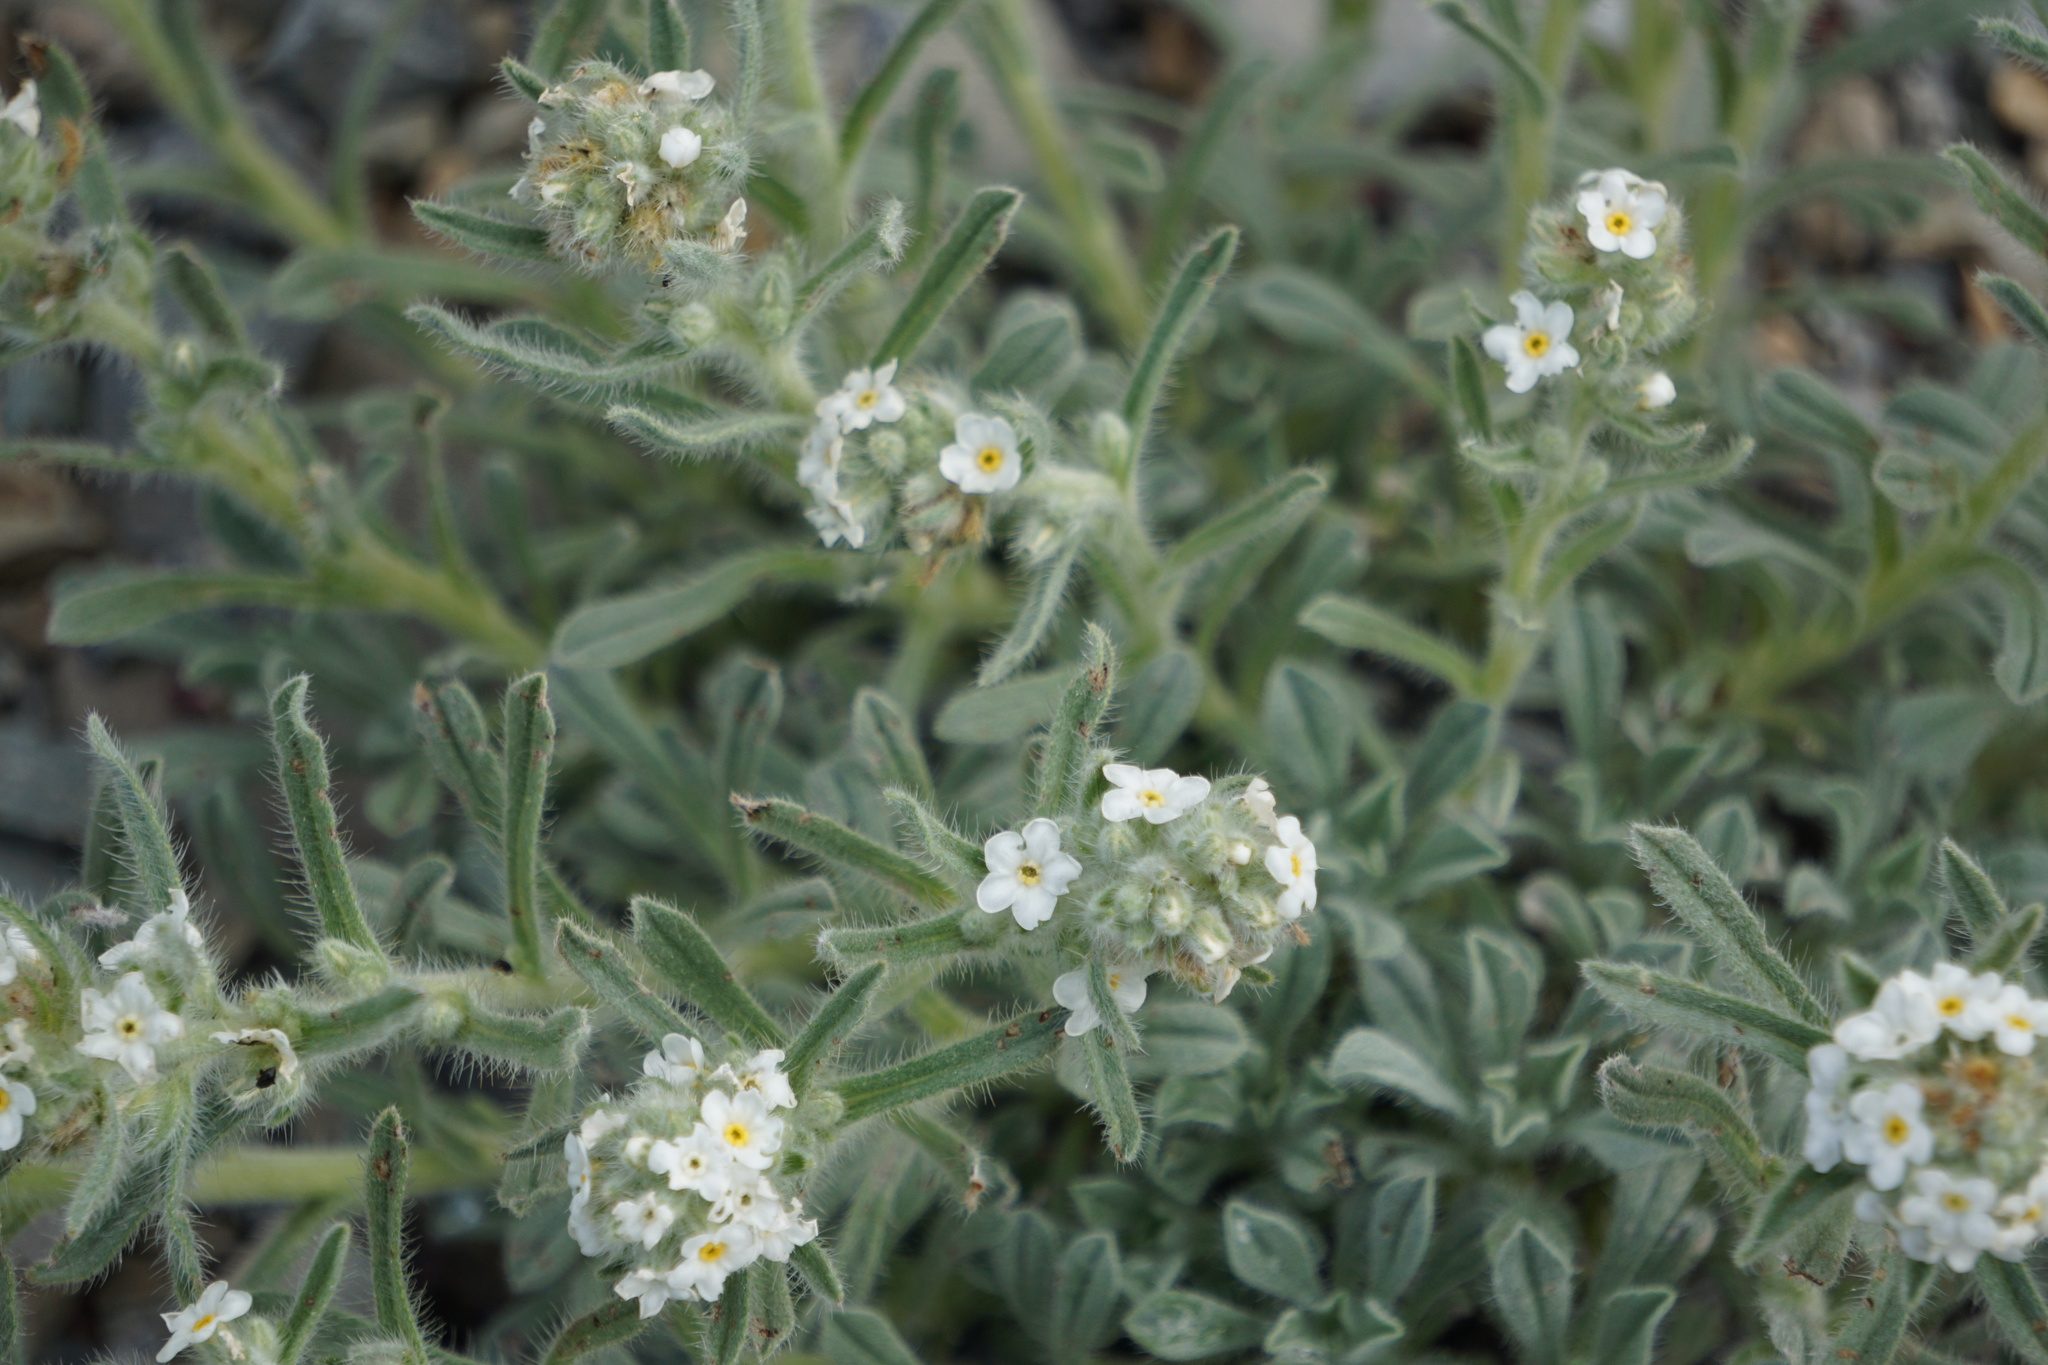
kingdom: Plantae
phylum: Tracheophyta
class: Magnoliopsida
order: Boraginales
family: Boraginaceae
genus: Oreocarya
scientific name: Oreocarya glomerata
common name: Macoun's cryptantha
